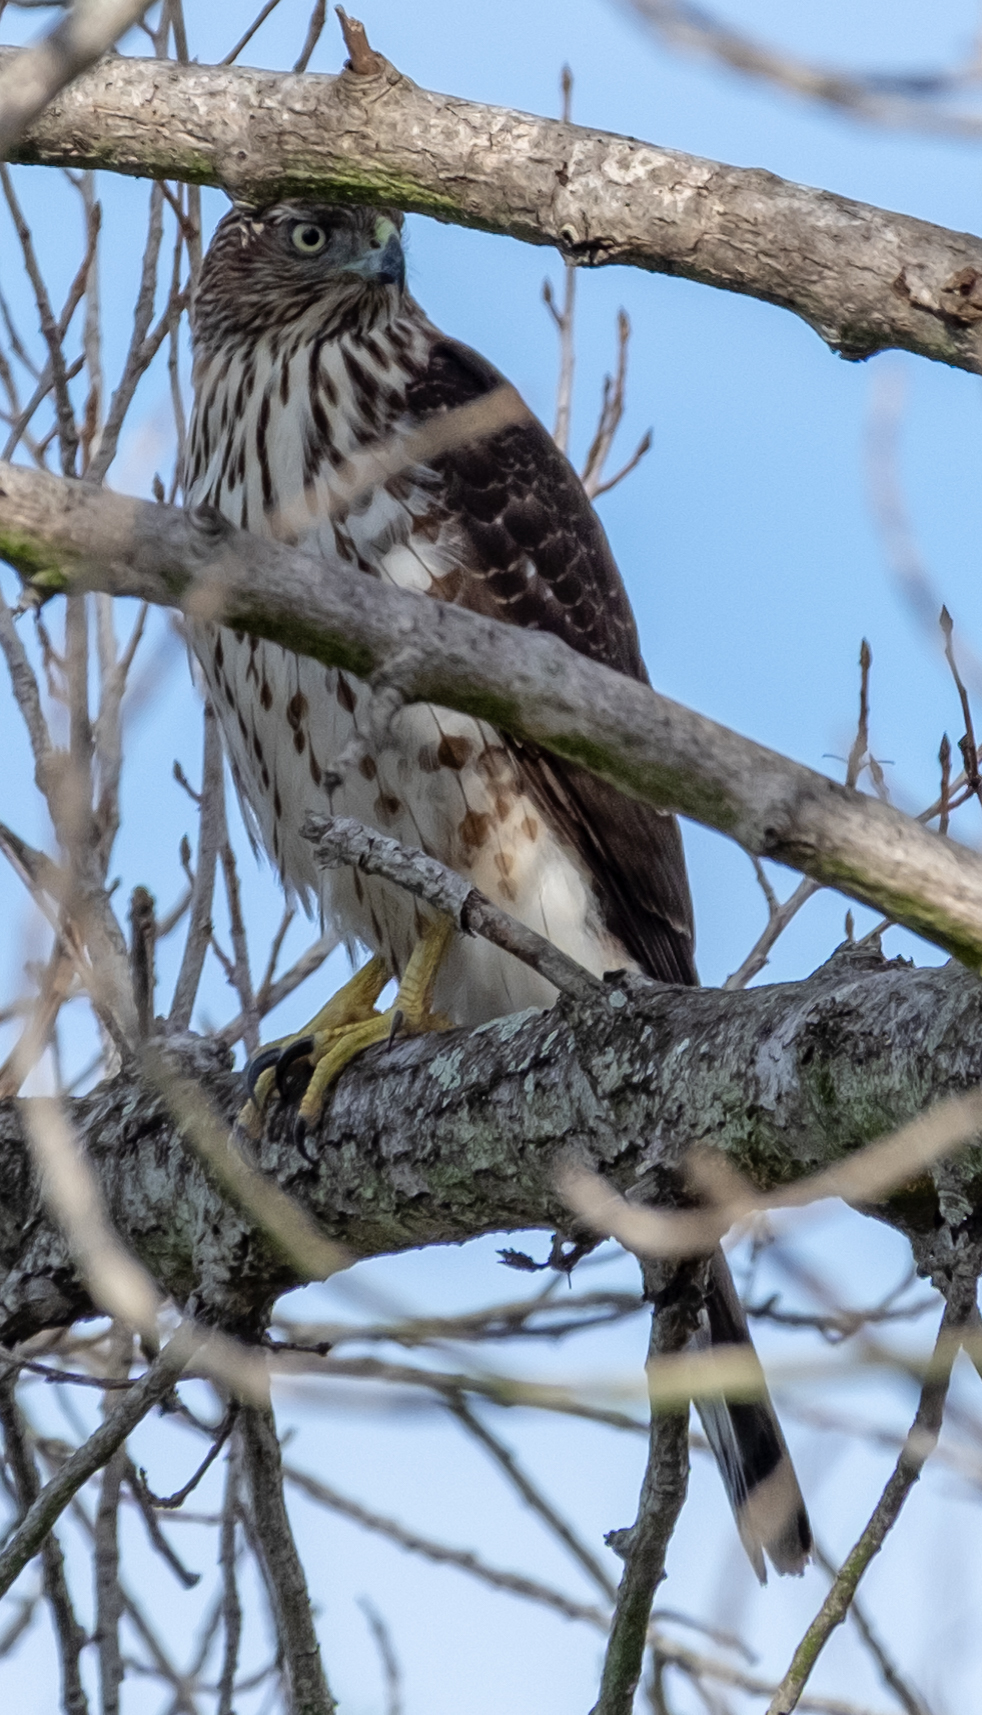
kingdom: Animalia
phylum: Chordata
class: Aves
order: Accipitriformes
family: Accipitridae
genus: Accipiter
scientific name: Accipiter cooperii
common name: Cooper's hawk
